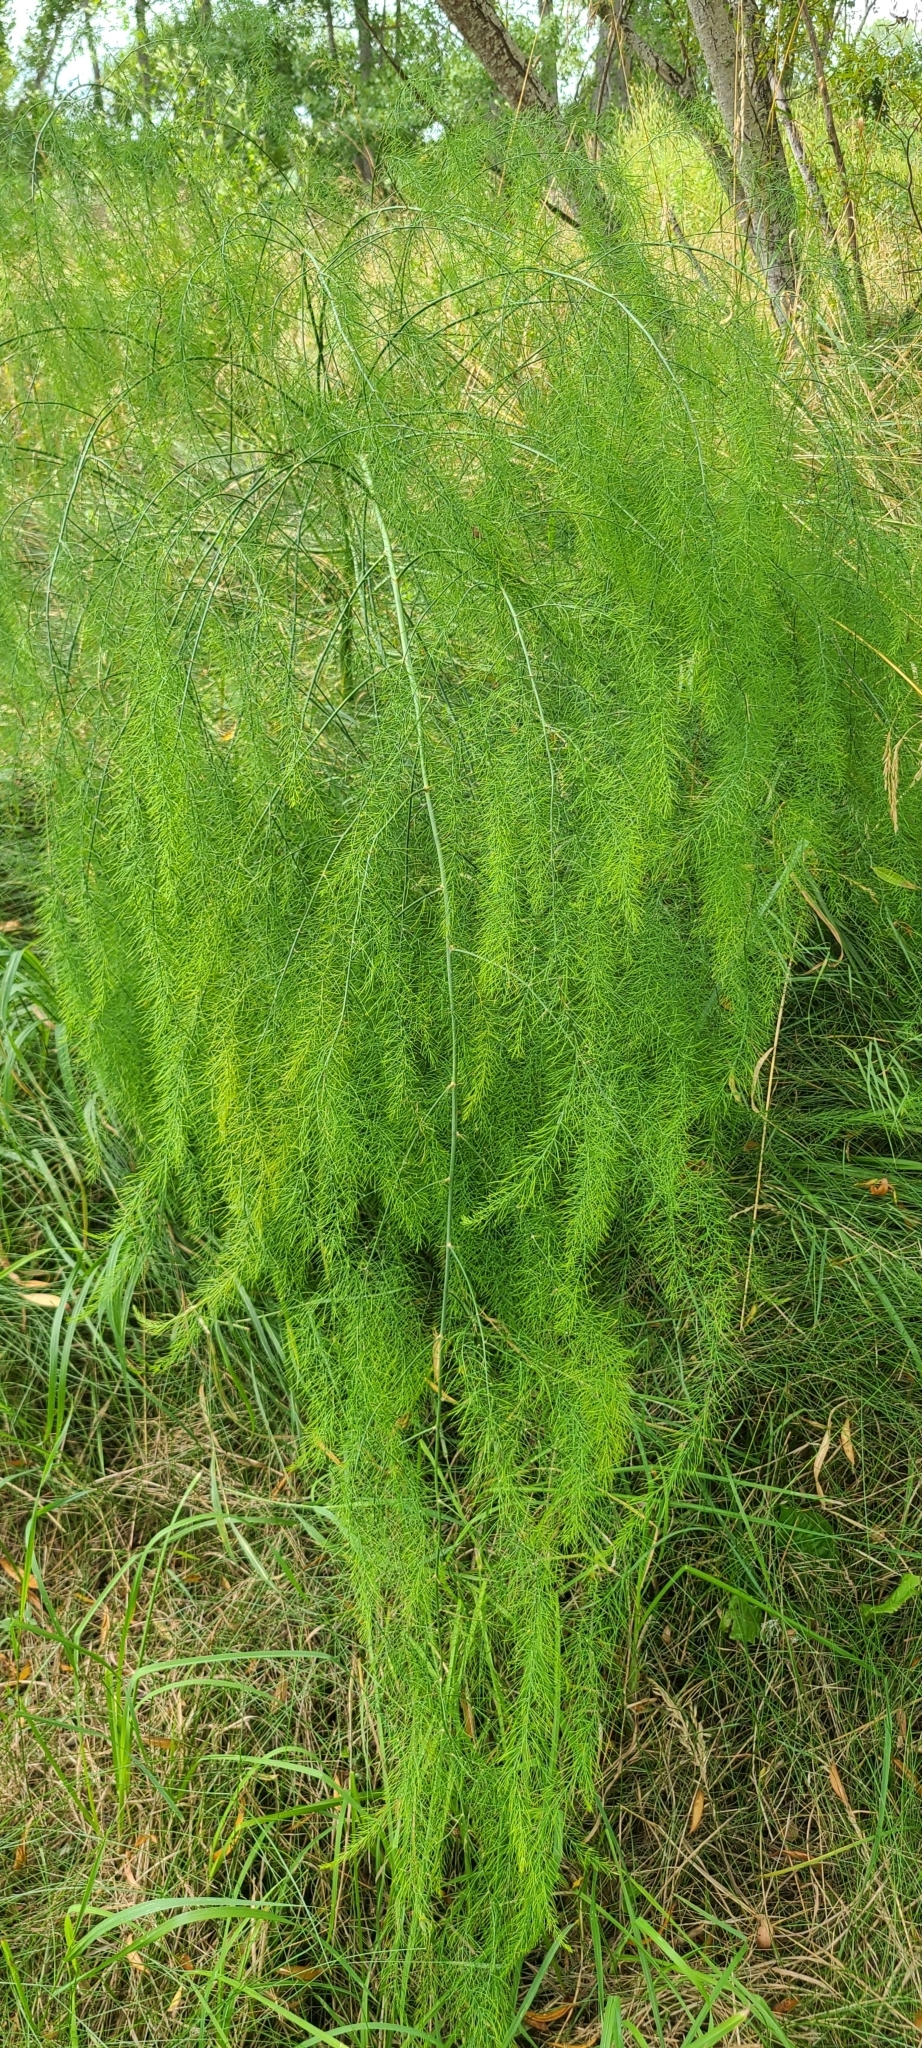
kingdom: Plantae
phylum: Tracheophyta
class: Liliopsida
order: Asparagales
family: Asparagaceae
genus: Asparagus
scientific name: Asparagus officinalis
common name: Garden asparagus
